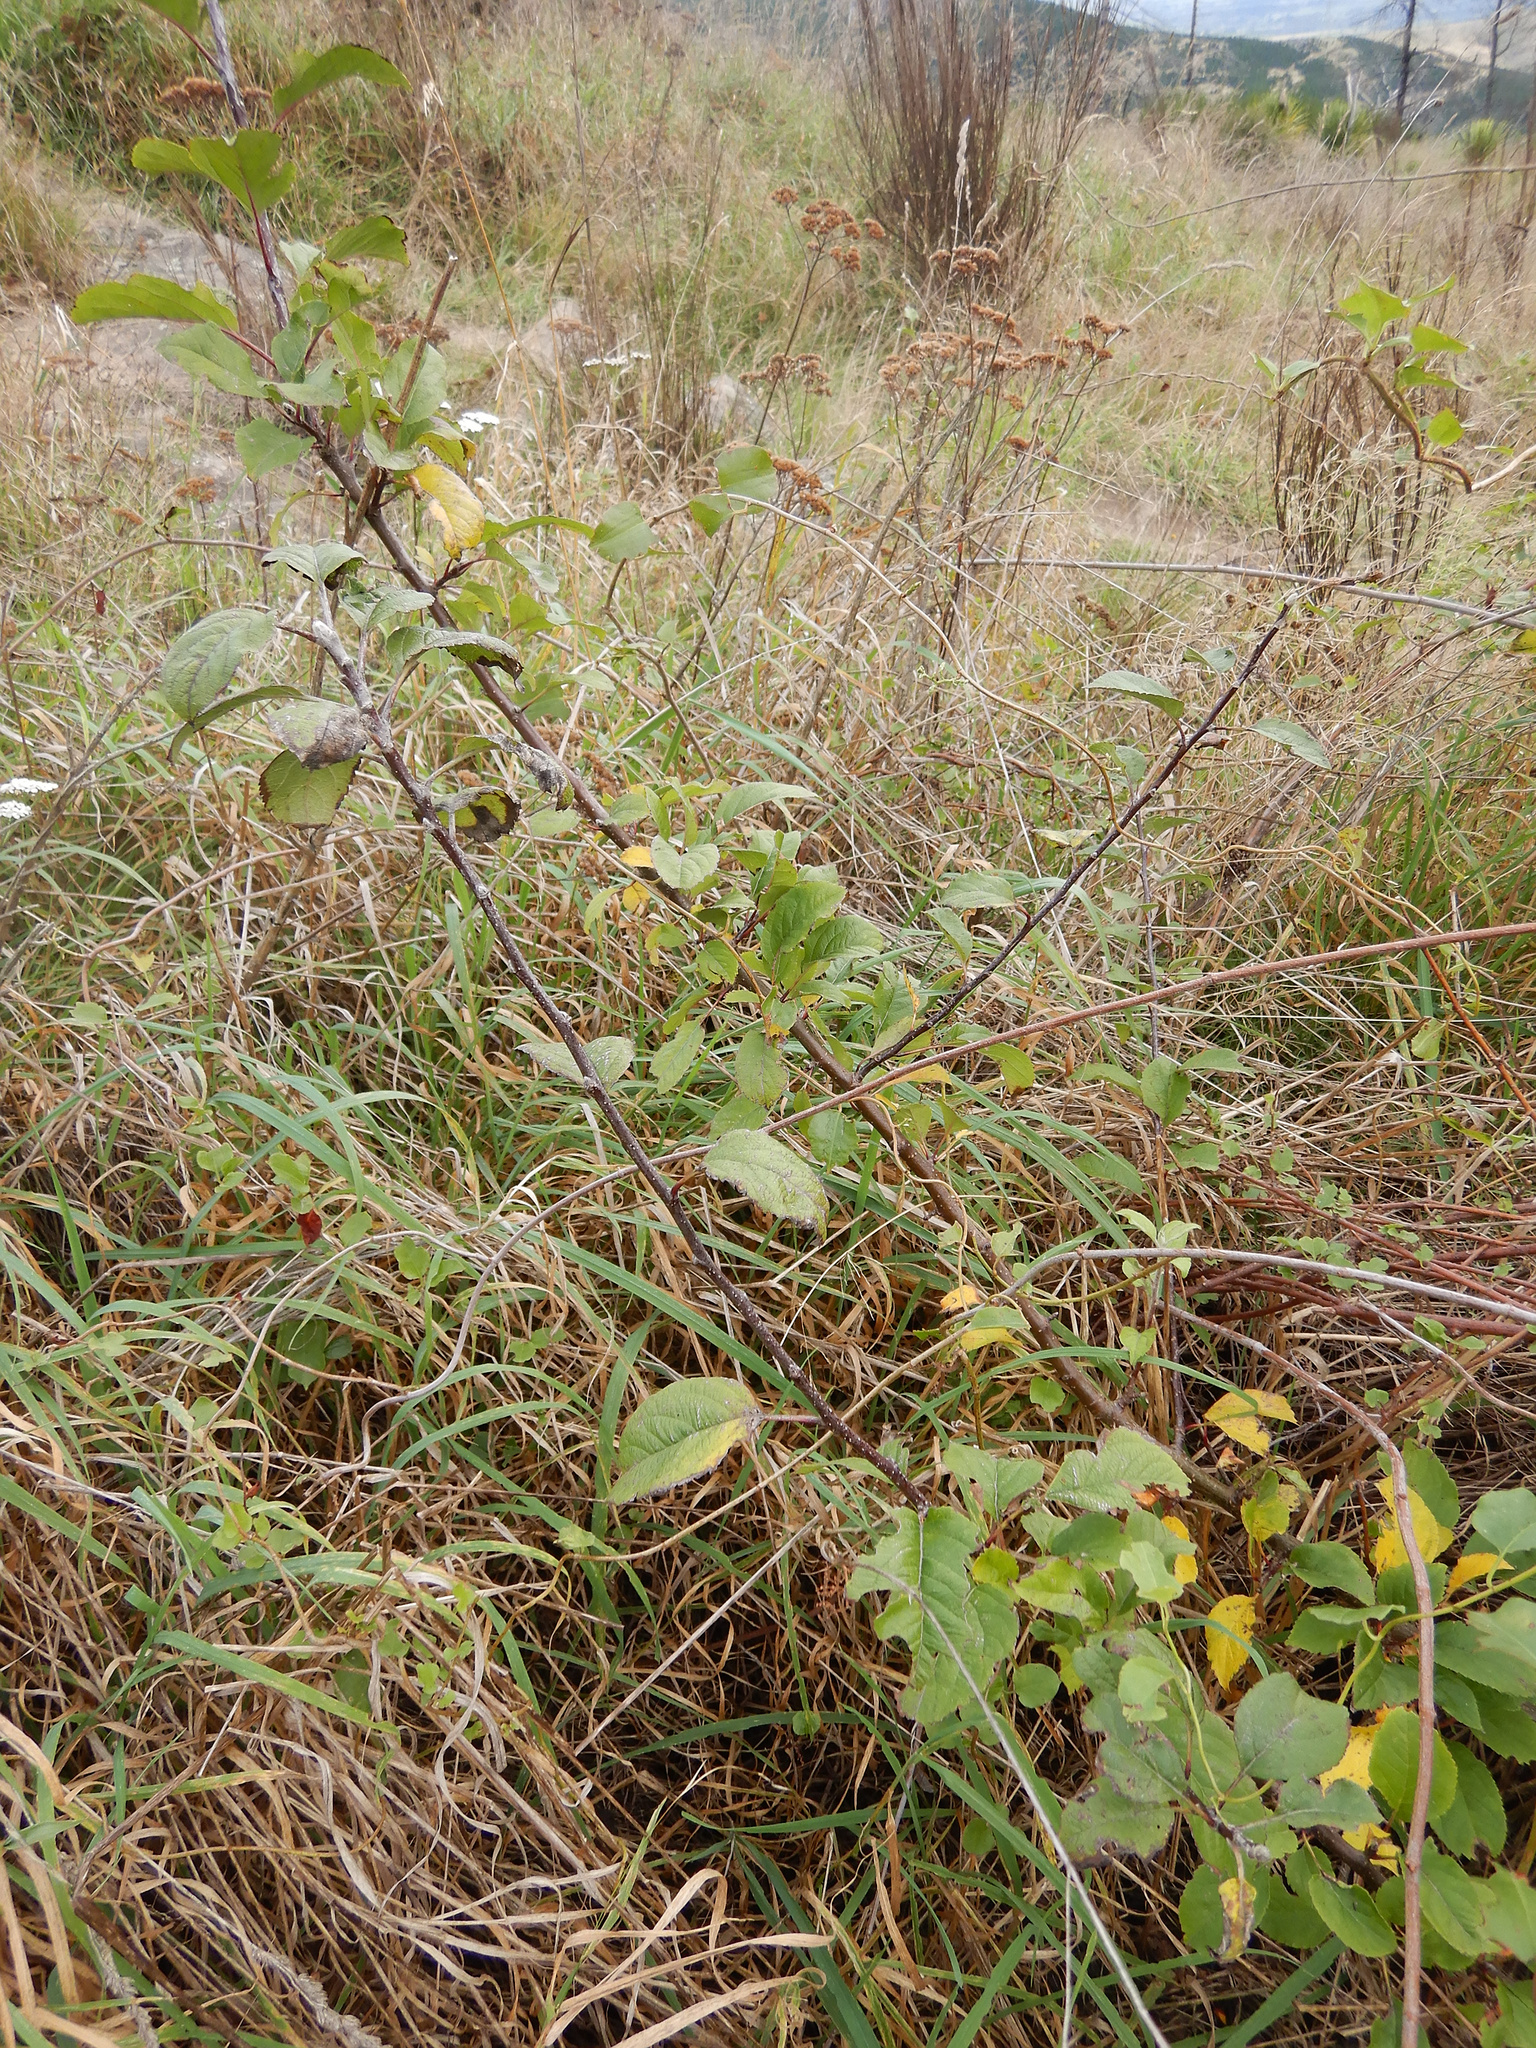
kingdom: Plantae
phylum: Tracheophyta
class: Magnoliopsida
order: Rosales
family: Rosaceae
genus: Malus
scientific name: Malus domestica
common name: Apple
